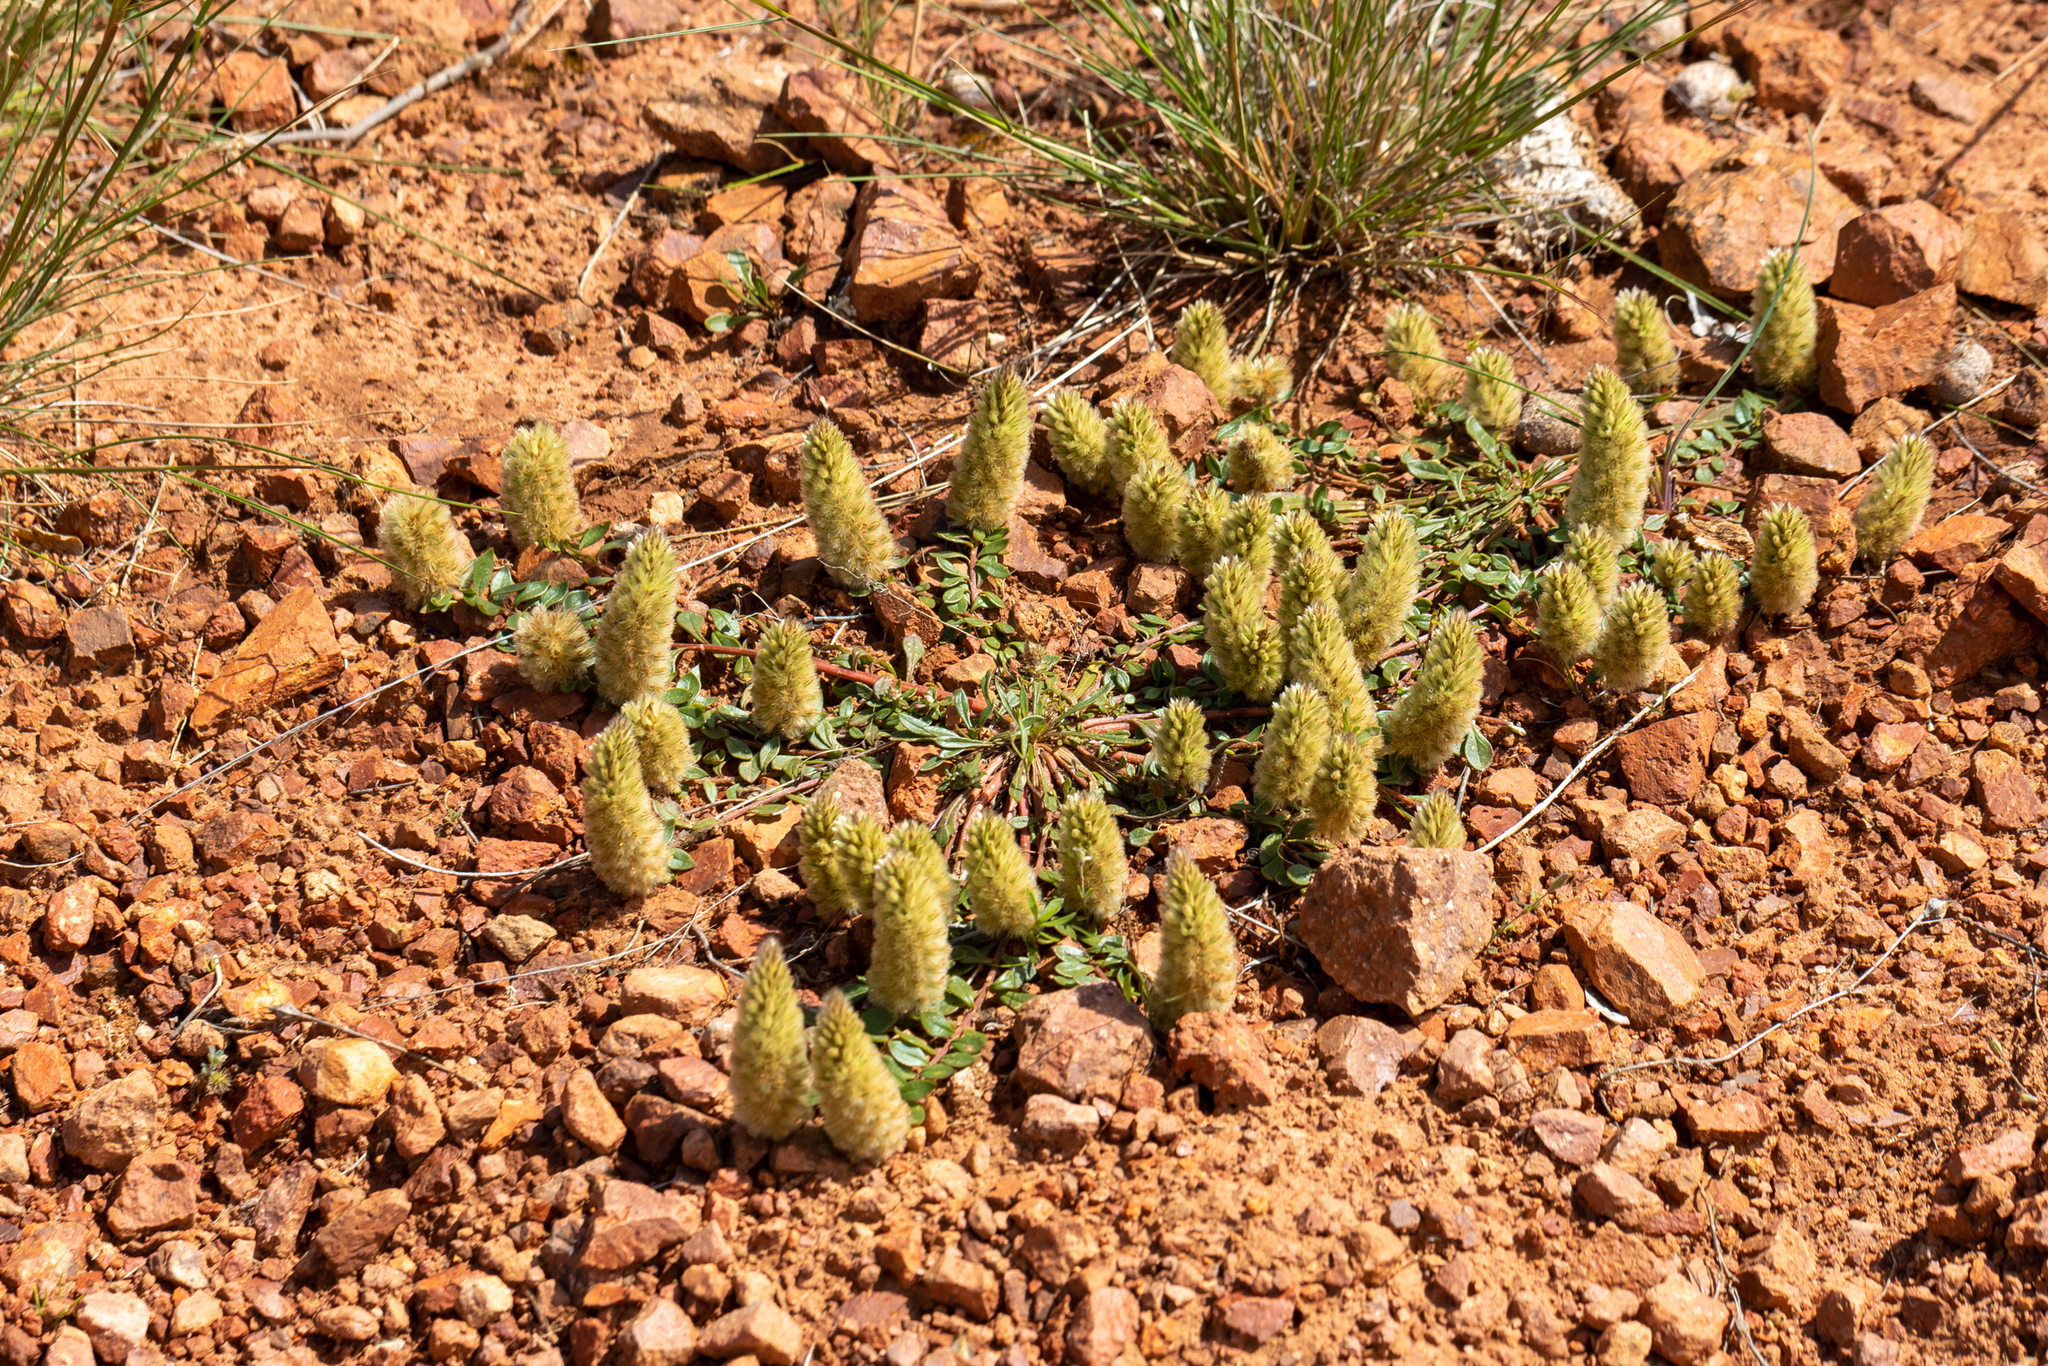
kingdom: Plantae
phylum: Tracheophyta
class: Magnoliopsida
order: Caryophyllales
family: Amaranthaceae
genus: Ptilotus
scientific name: Ptilotus spathulatus
